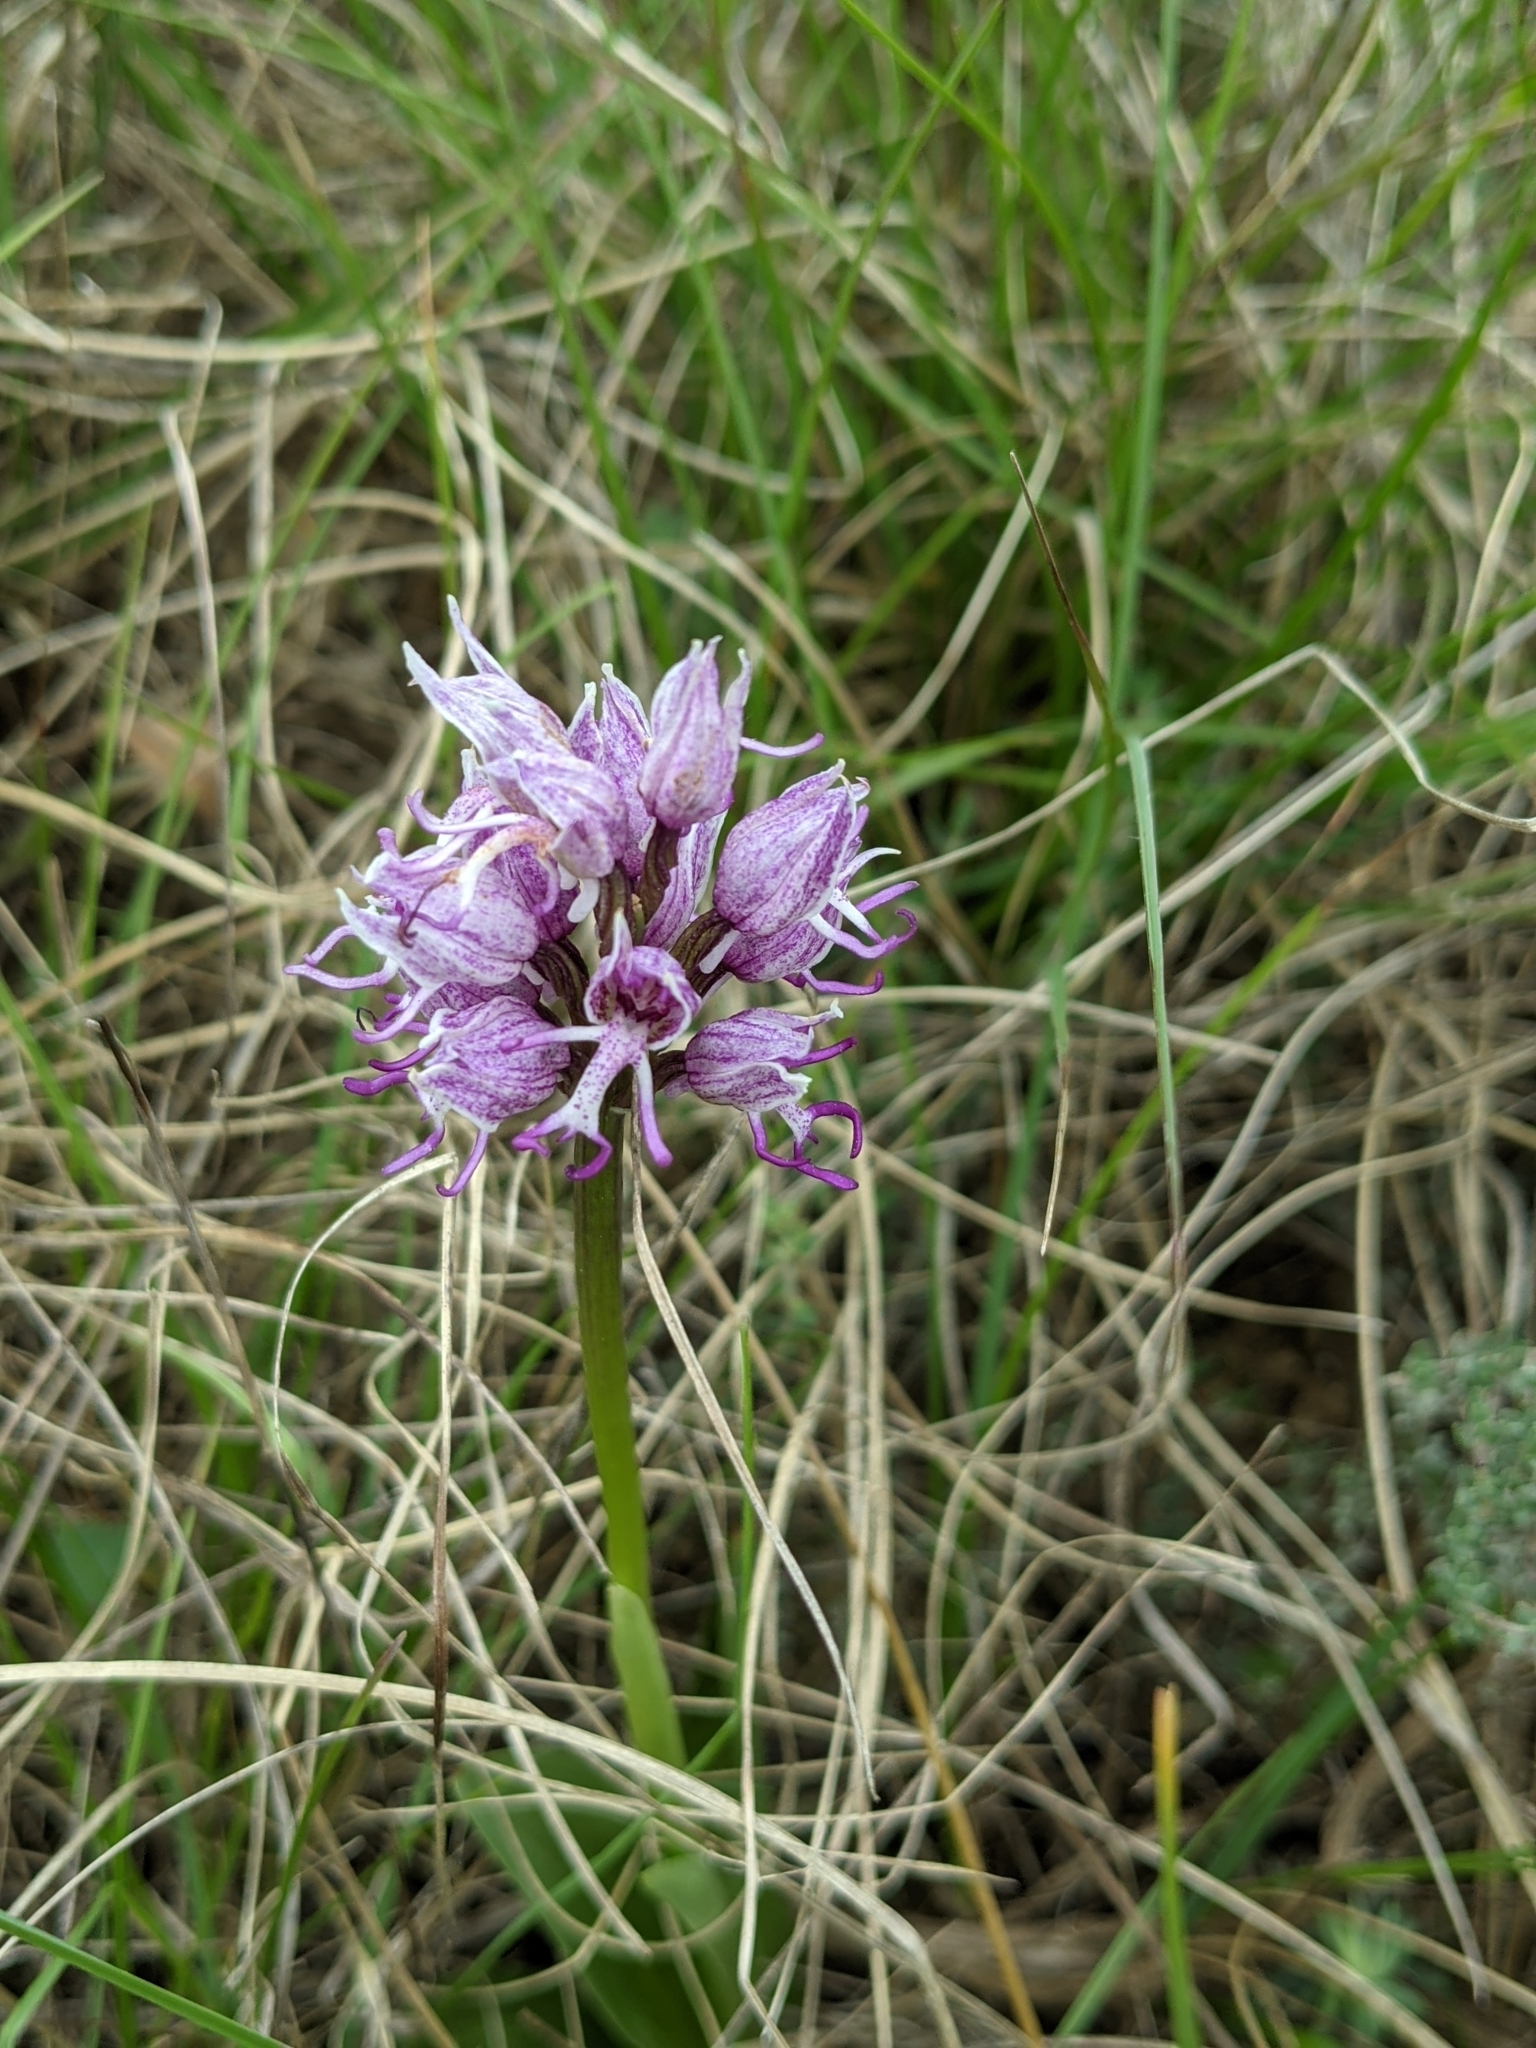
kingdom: Plantae
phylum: Tracheophyta
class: Liliopsida
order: Asparagales
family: Orchidaceae
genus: Orchis
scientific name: Orchis simia
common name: Monkey orchid
